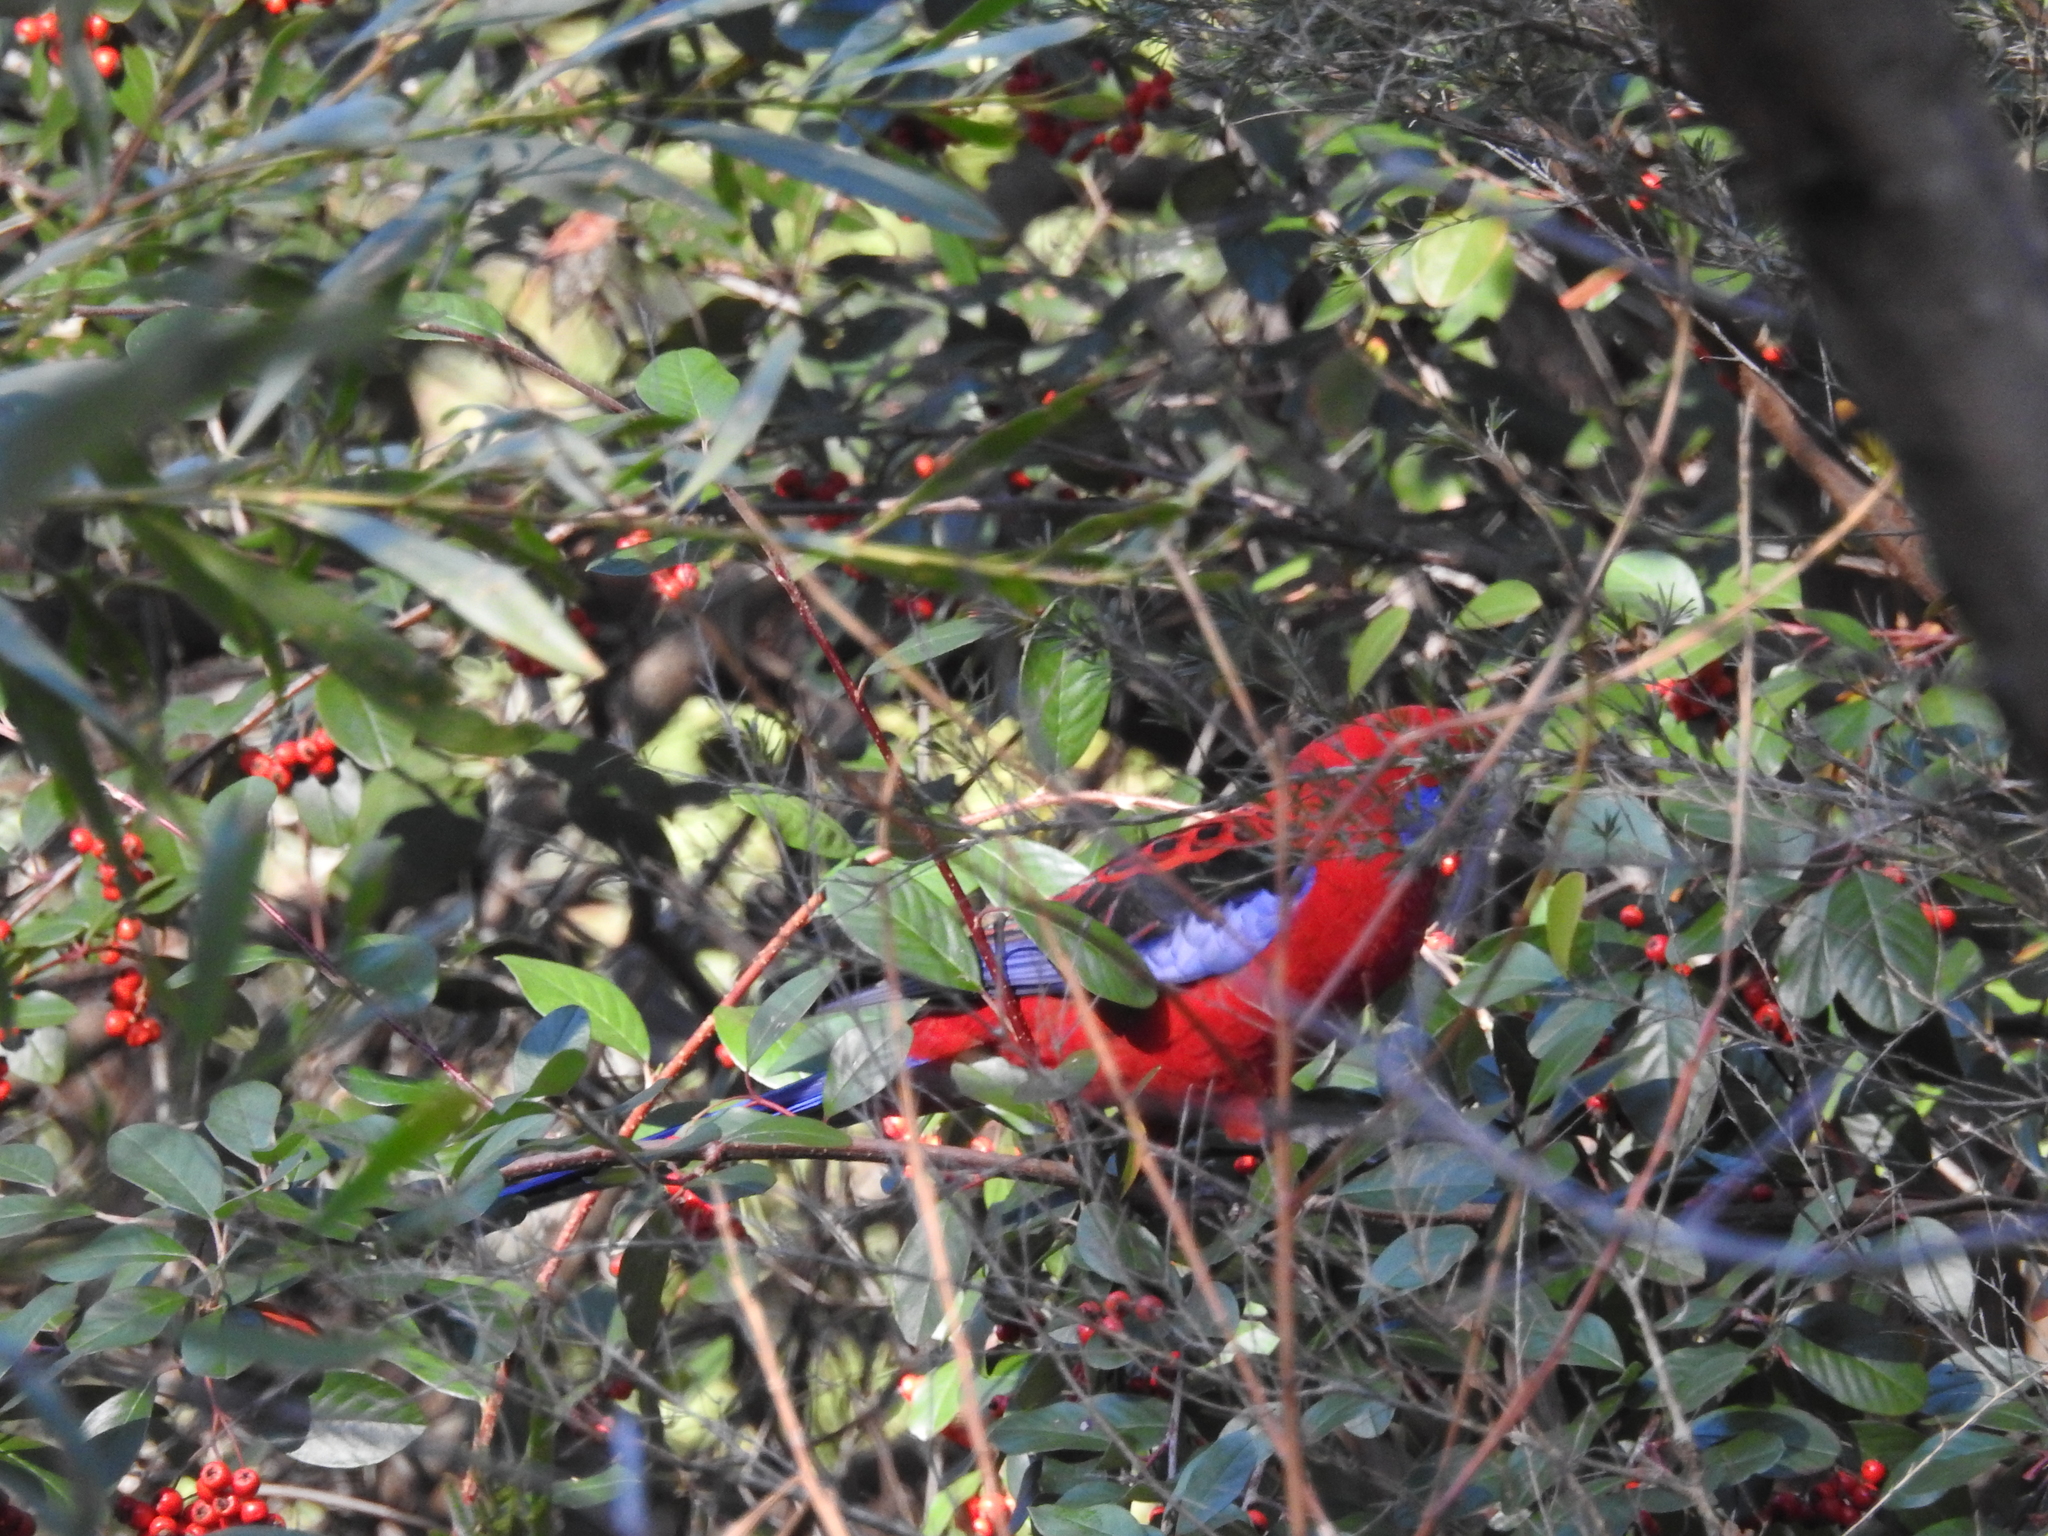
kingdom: Animalia
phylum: Chordata
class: Aves
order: Psittaciformes
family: Psittacidae
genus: Platycercus
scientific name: Platycercus elegans
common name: Crimson rosella
